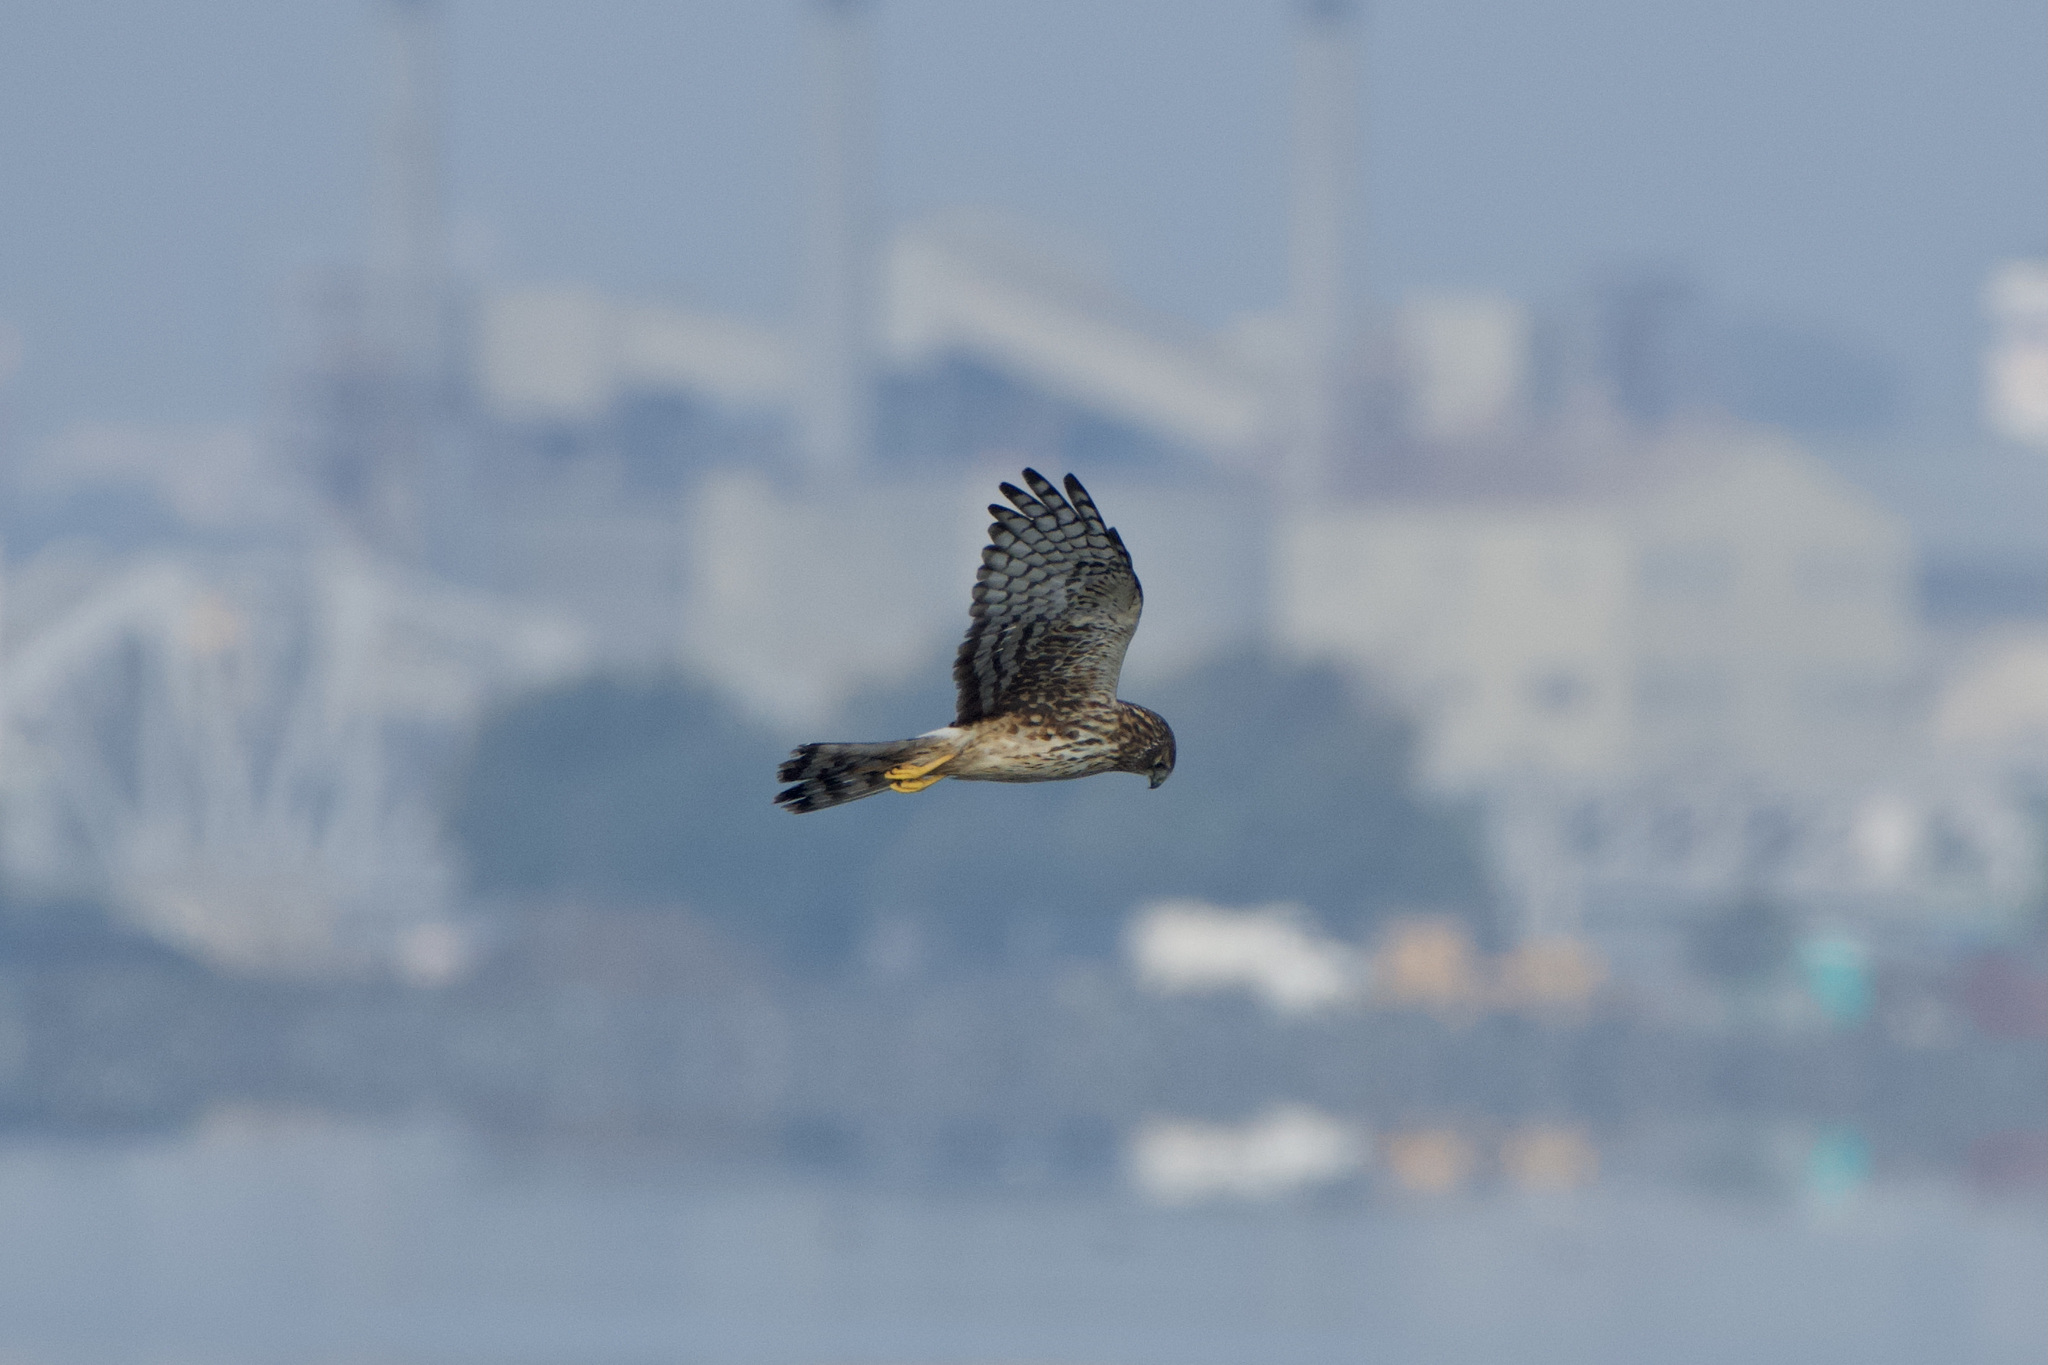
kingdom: Animalia
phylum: Chordata
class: Aves
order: Accipitriformes
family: Accipitridae
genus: Circus
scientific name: Circus cyaneus
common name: Hen harrier
